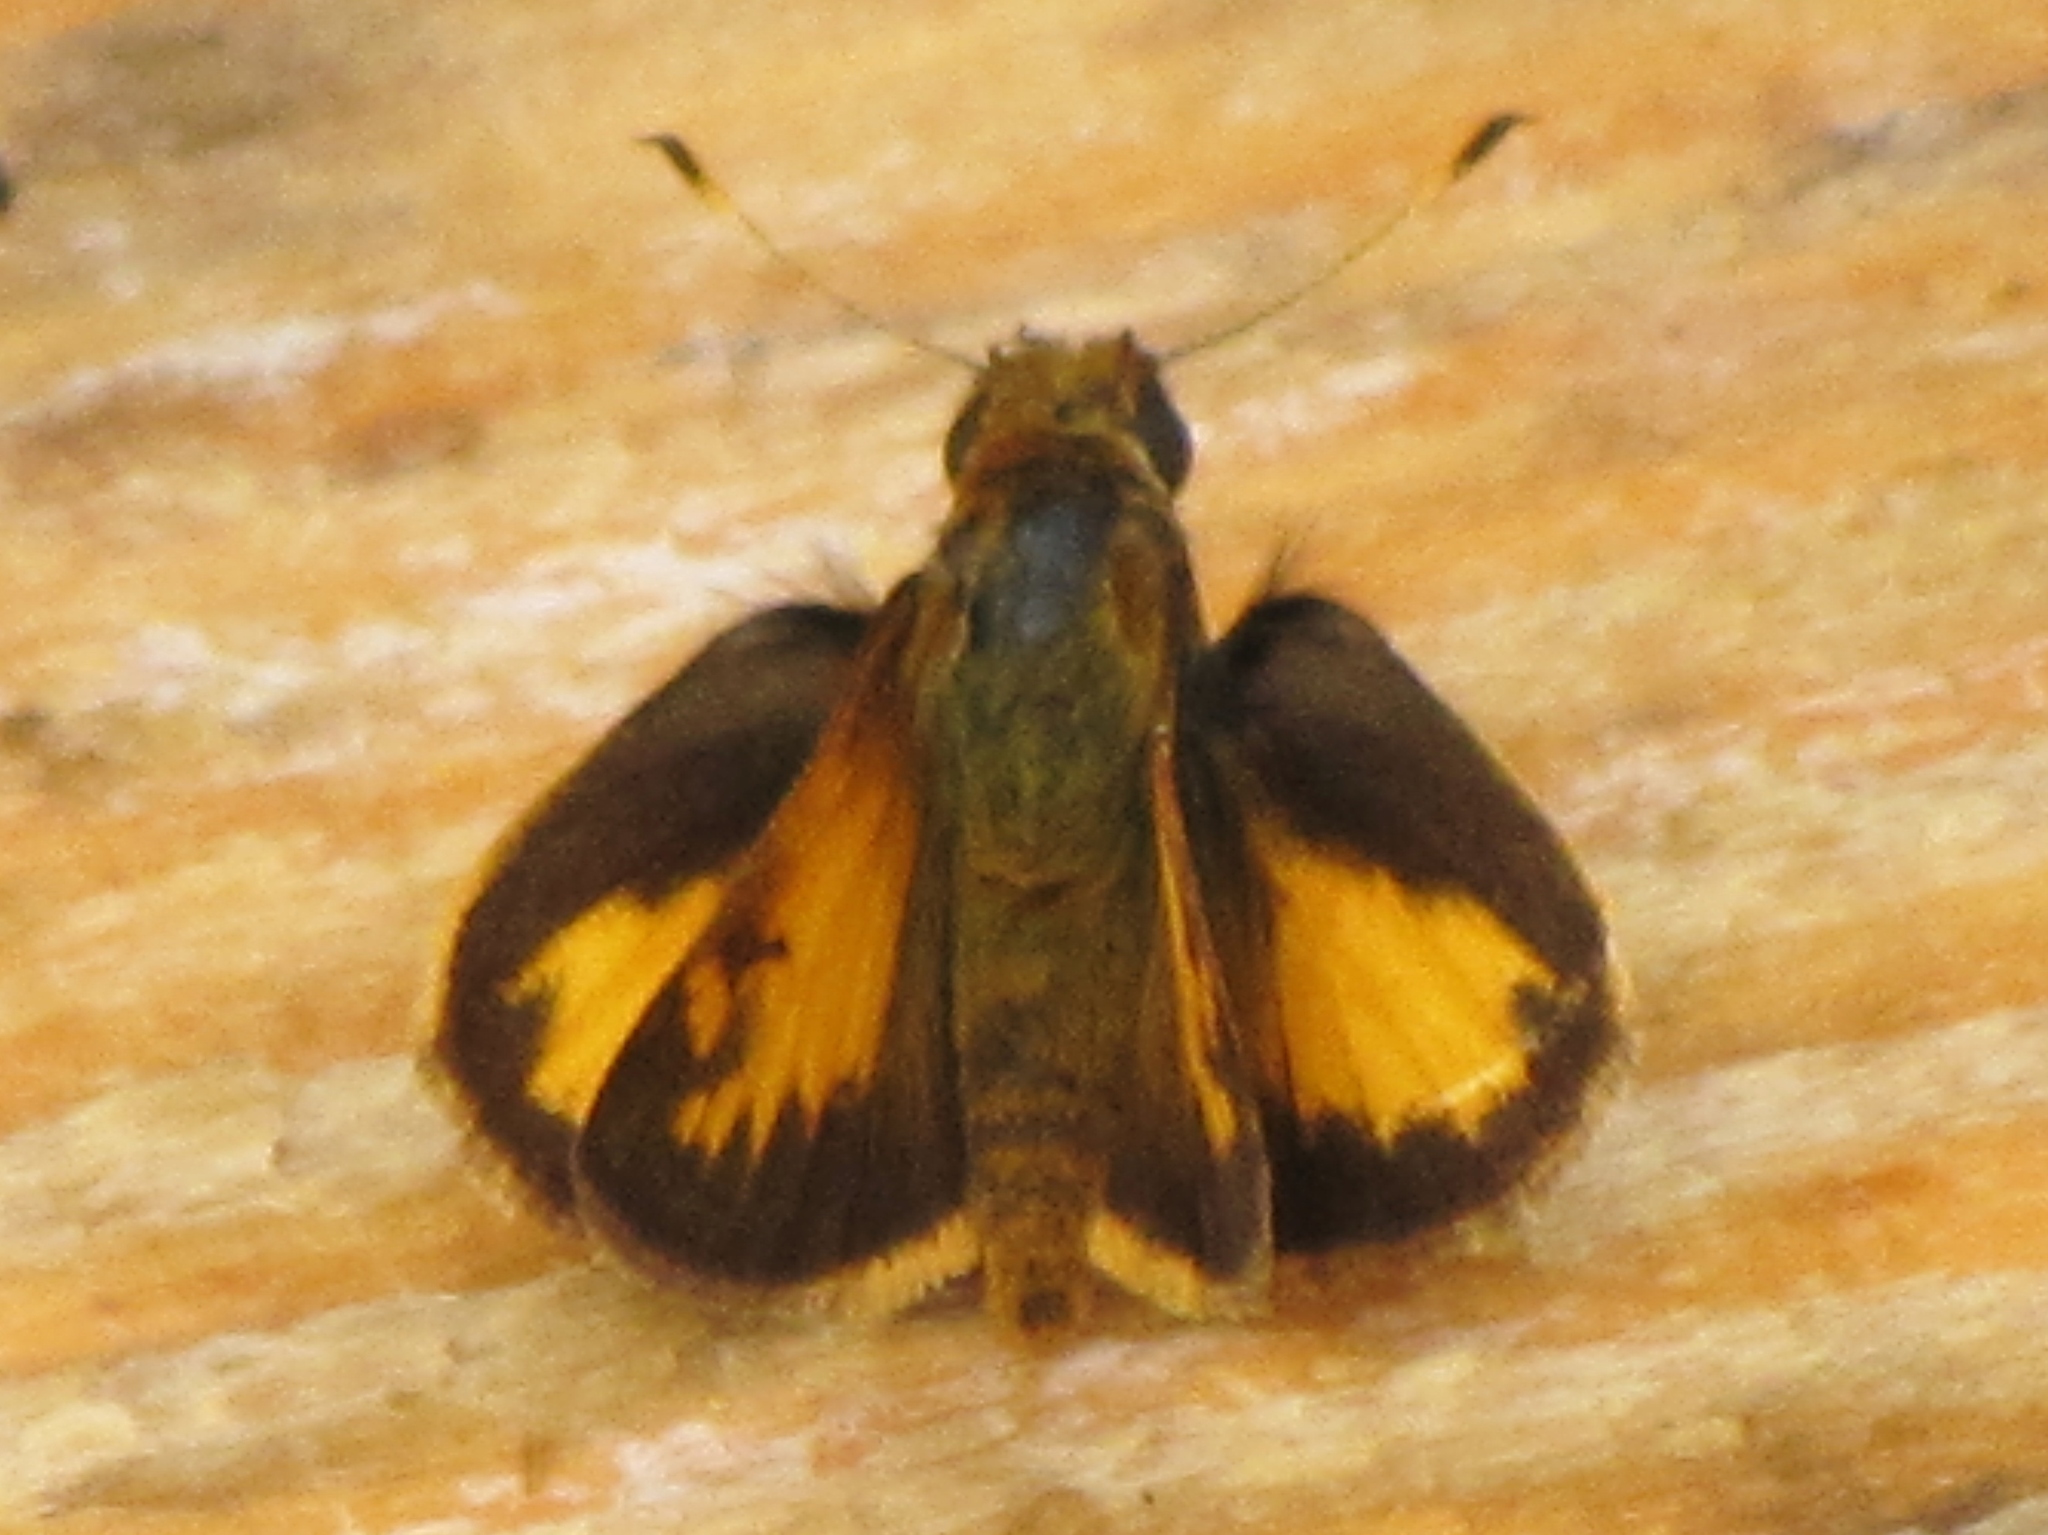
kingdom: Animalia
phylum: Arthropoda
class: Insecta
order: Lepidoptera
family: Hesperiidae
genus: Lon
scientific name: Lon zabulon
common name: Zabulon skipper
